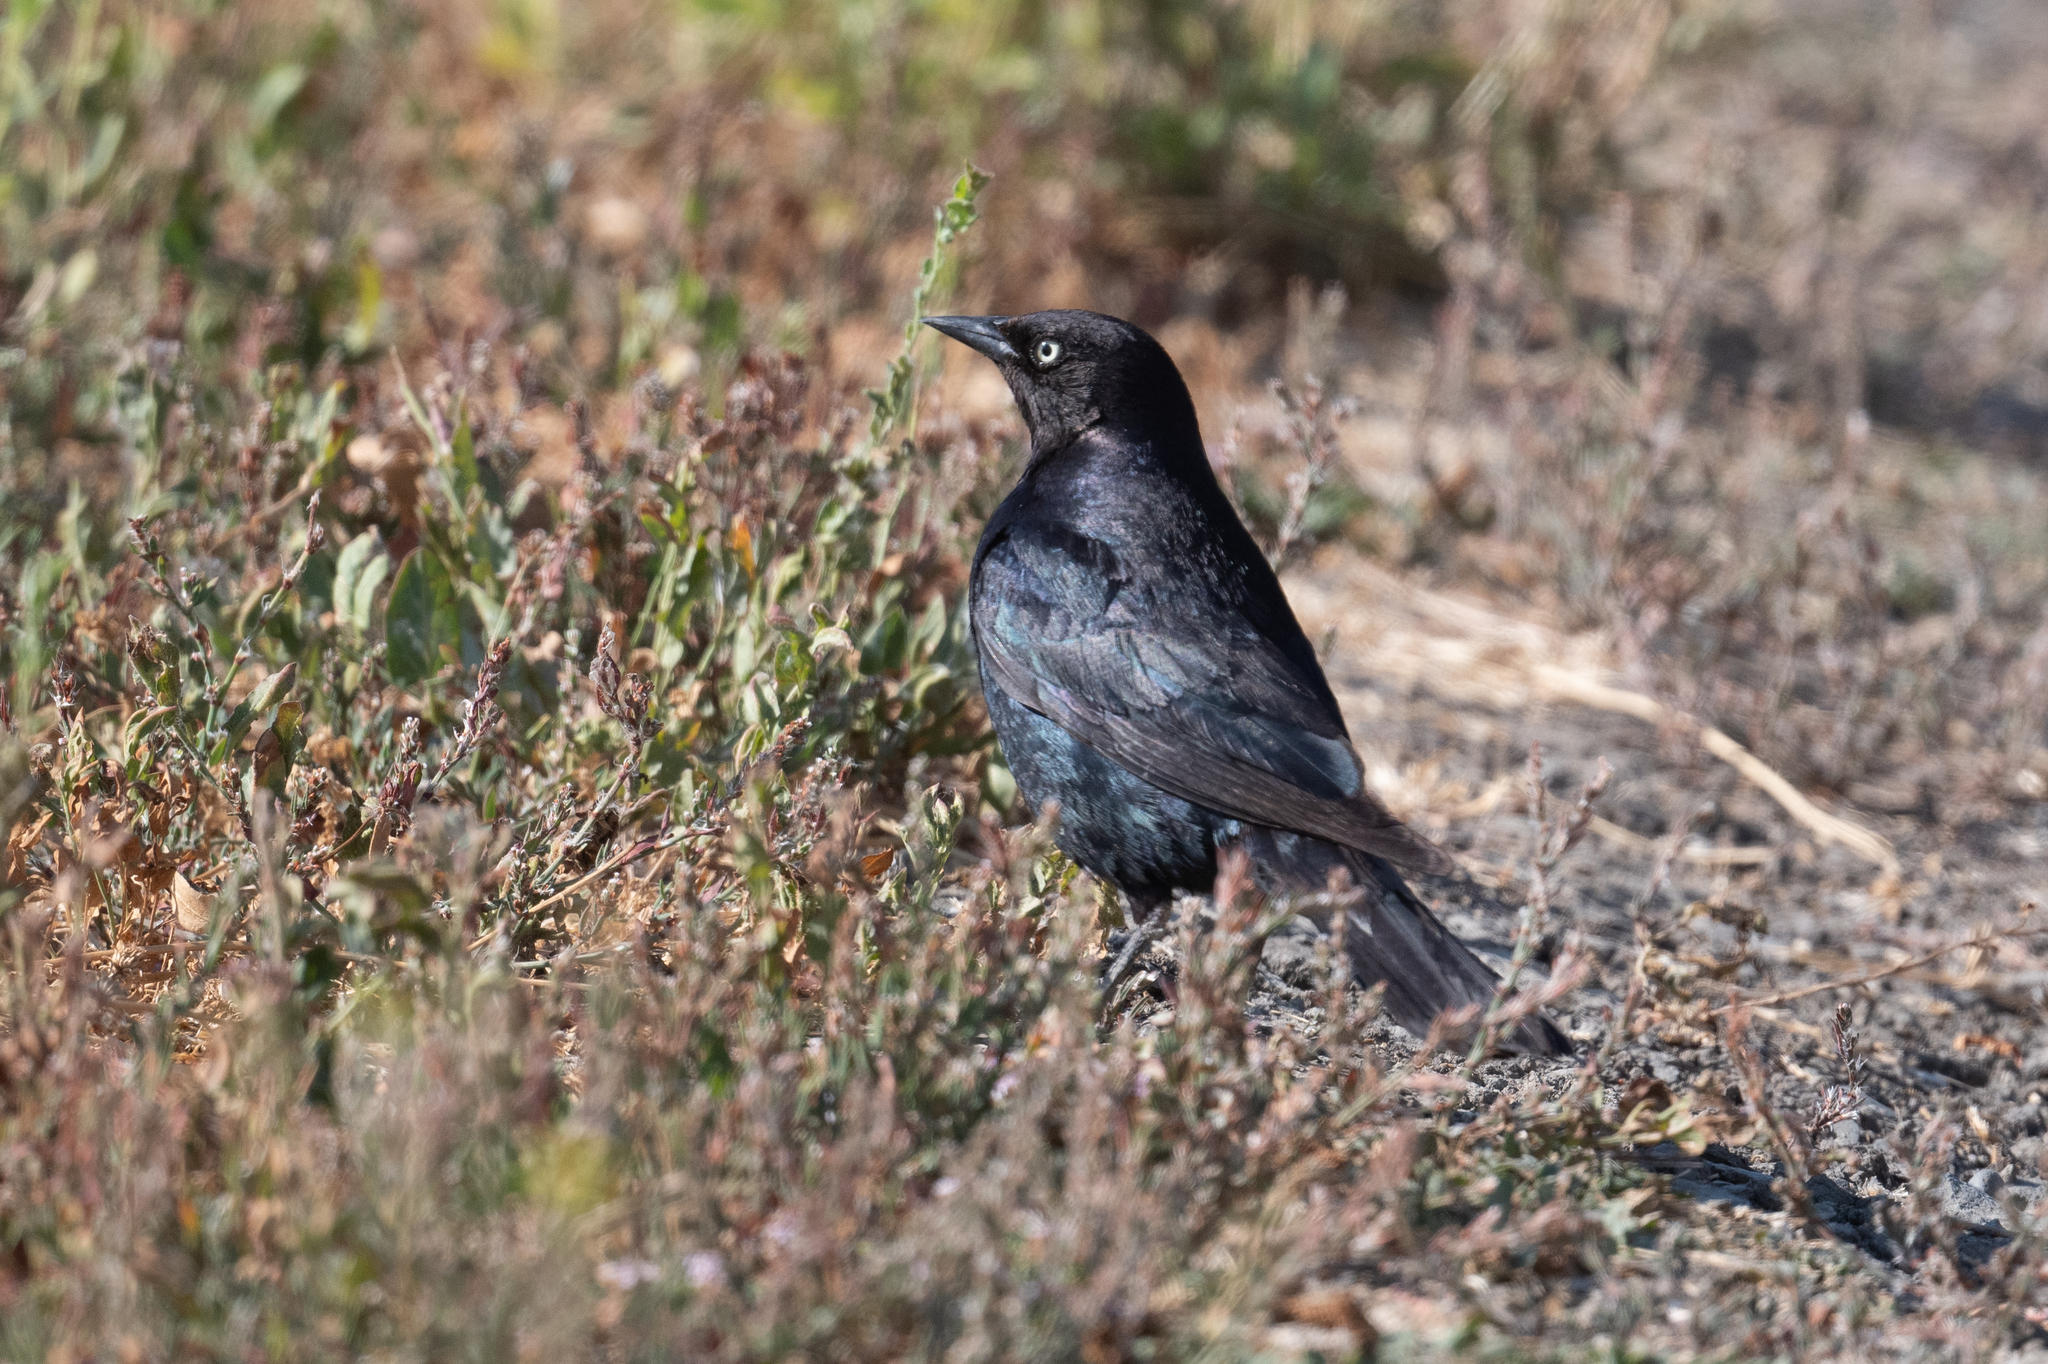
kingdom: Animalia
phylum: Chordata
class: Aves
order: Passeriformes
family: Icteridae
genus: Euphagus
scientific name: Euphagus cyanocephalus
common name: Brewer's blackbird
